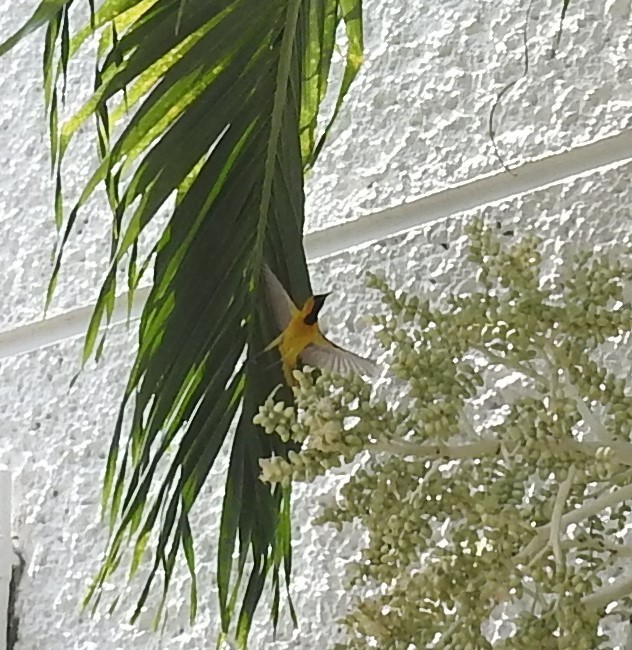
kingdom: Animalia
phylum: Chordata
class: Aves
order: Passeriformes
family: Icteridae
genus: Icterus
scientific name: Icterus cucullatus
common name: Hooded oriole
